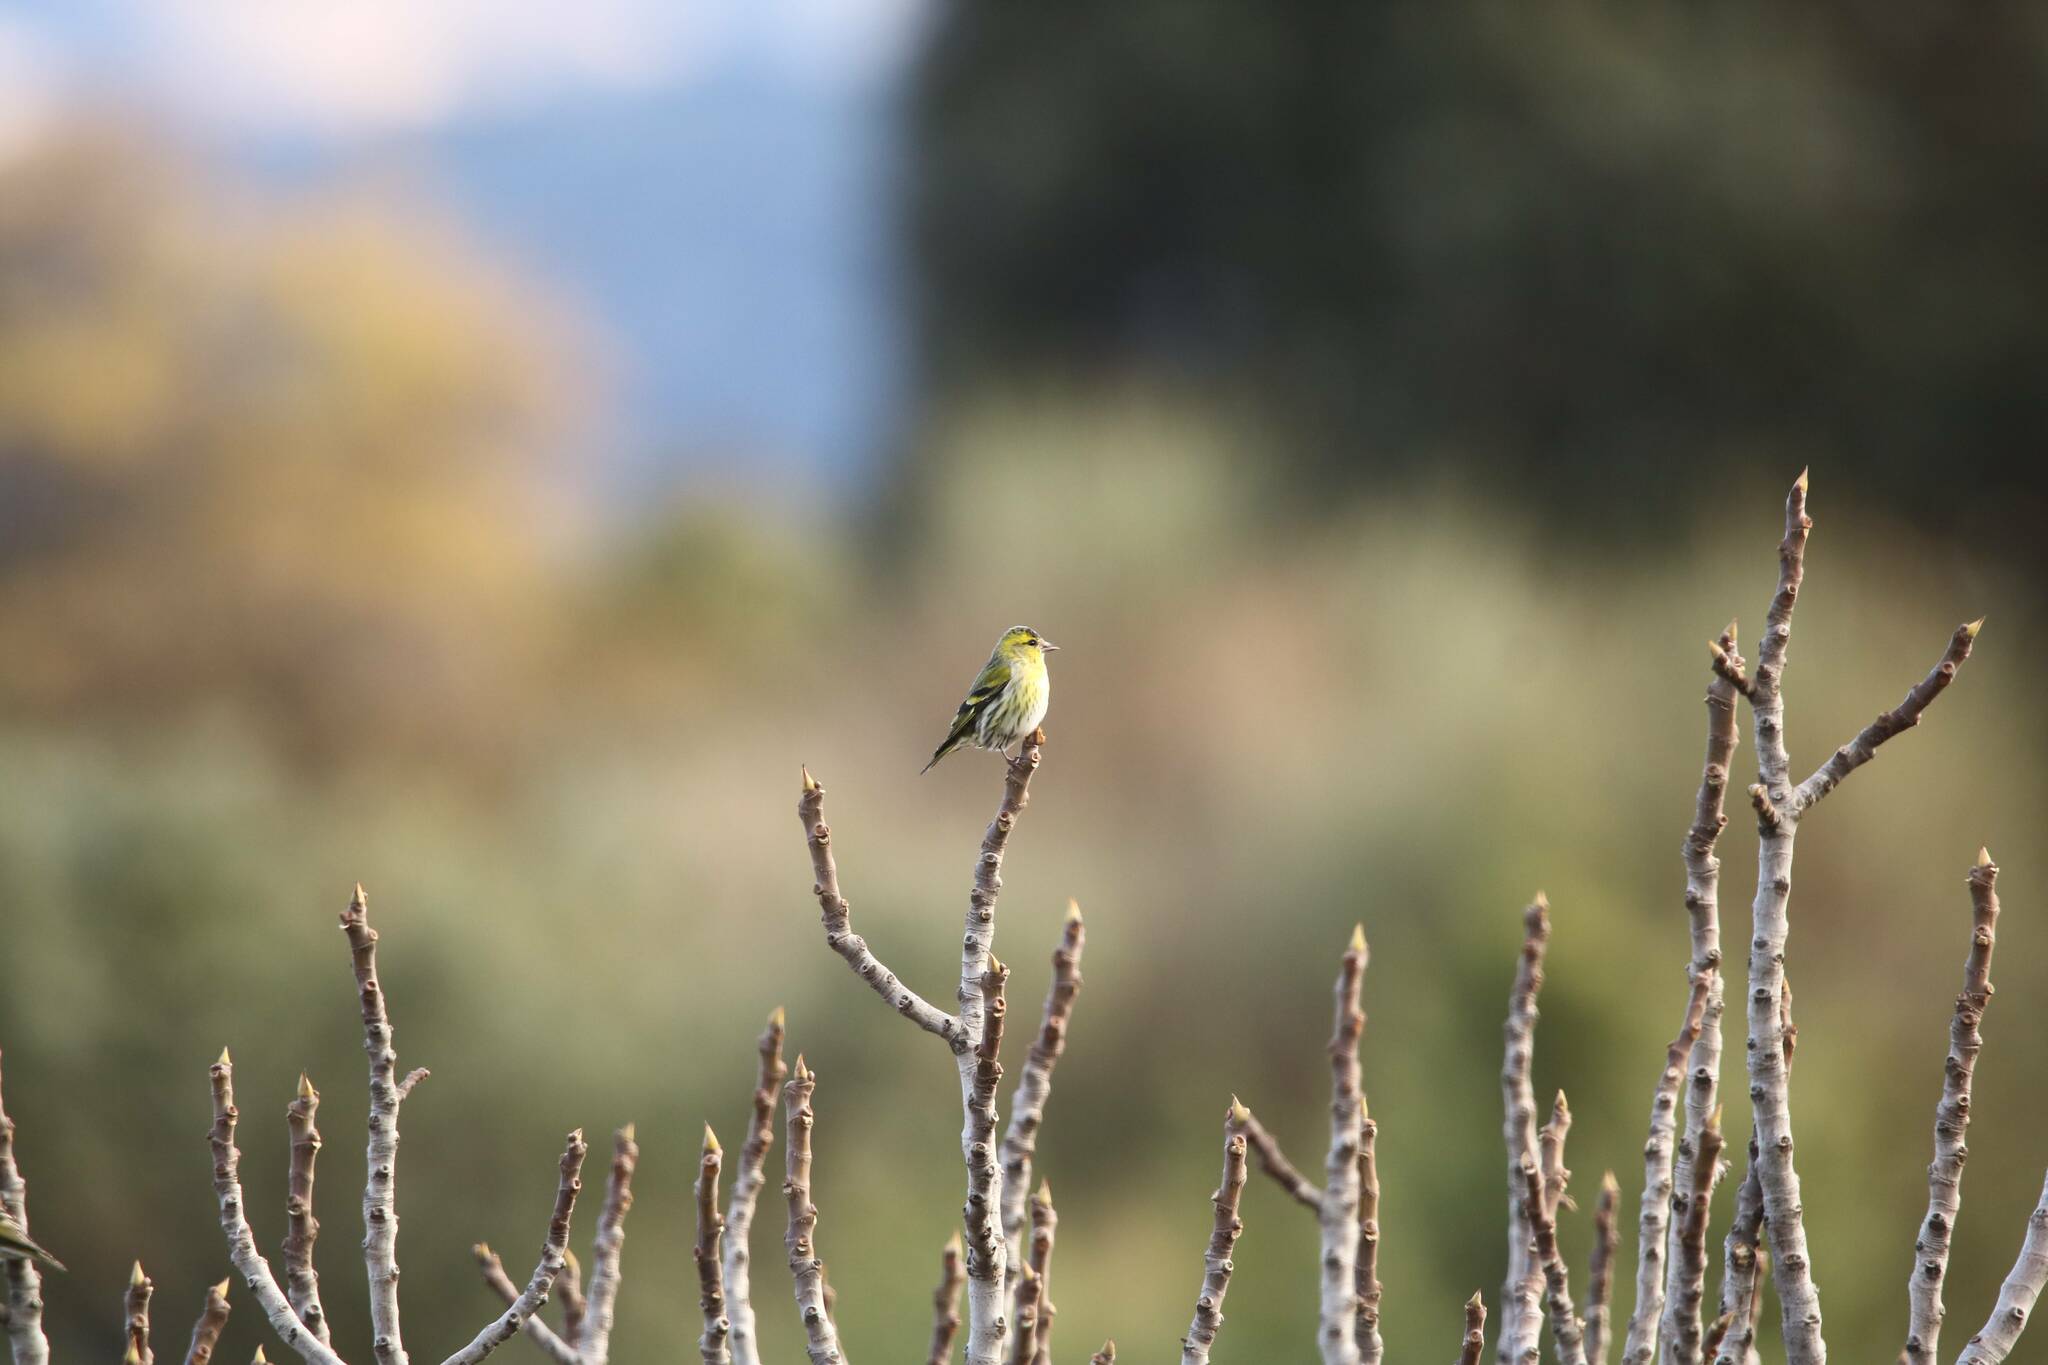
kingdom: Animalia
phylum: Chordata
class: Aves
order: Passeriformes
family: Fringillidae
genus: Spinus
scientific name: Spinus spinus
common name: Eurasian siskin
